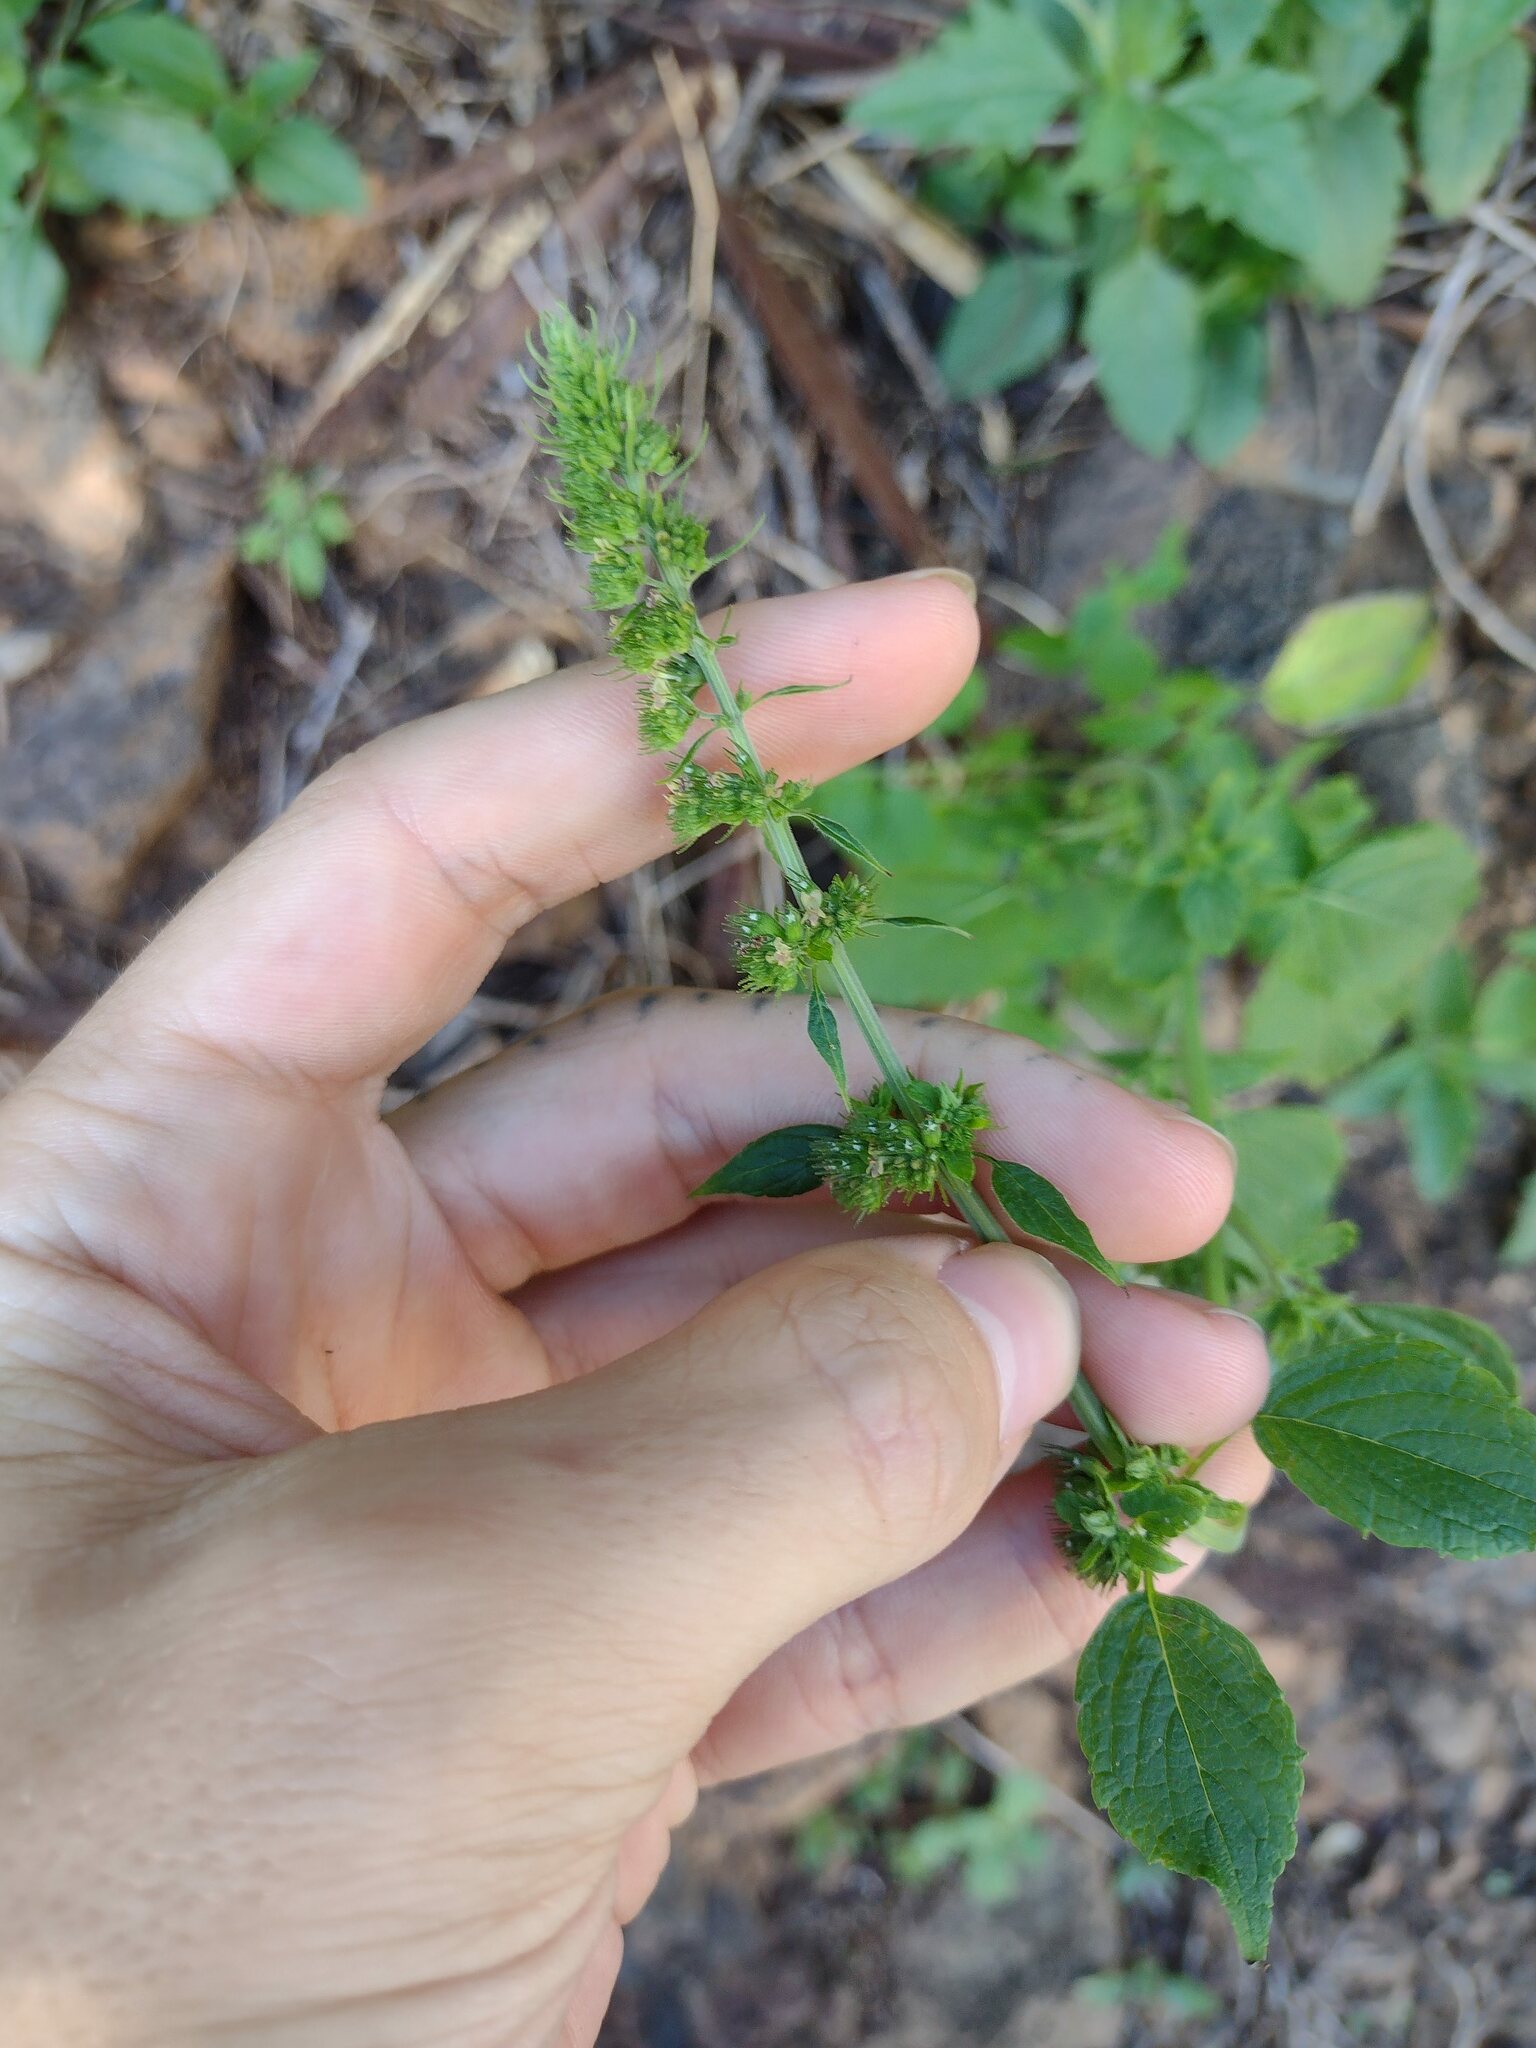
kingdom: Plantae
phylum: Tracheophyta
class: Magnoliopsida
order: Lamiales
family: Lamiaceae
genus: Mesosphaerum
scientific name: Mesosphaerum pectinatum
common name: Comb hyptis
